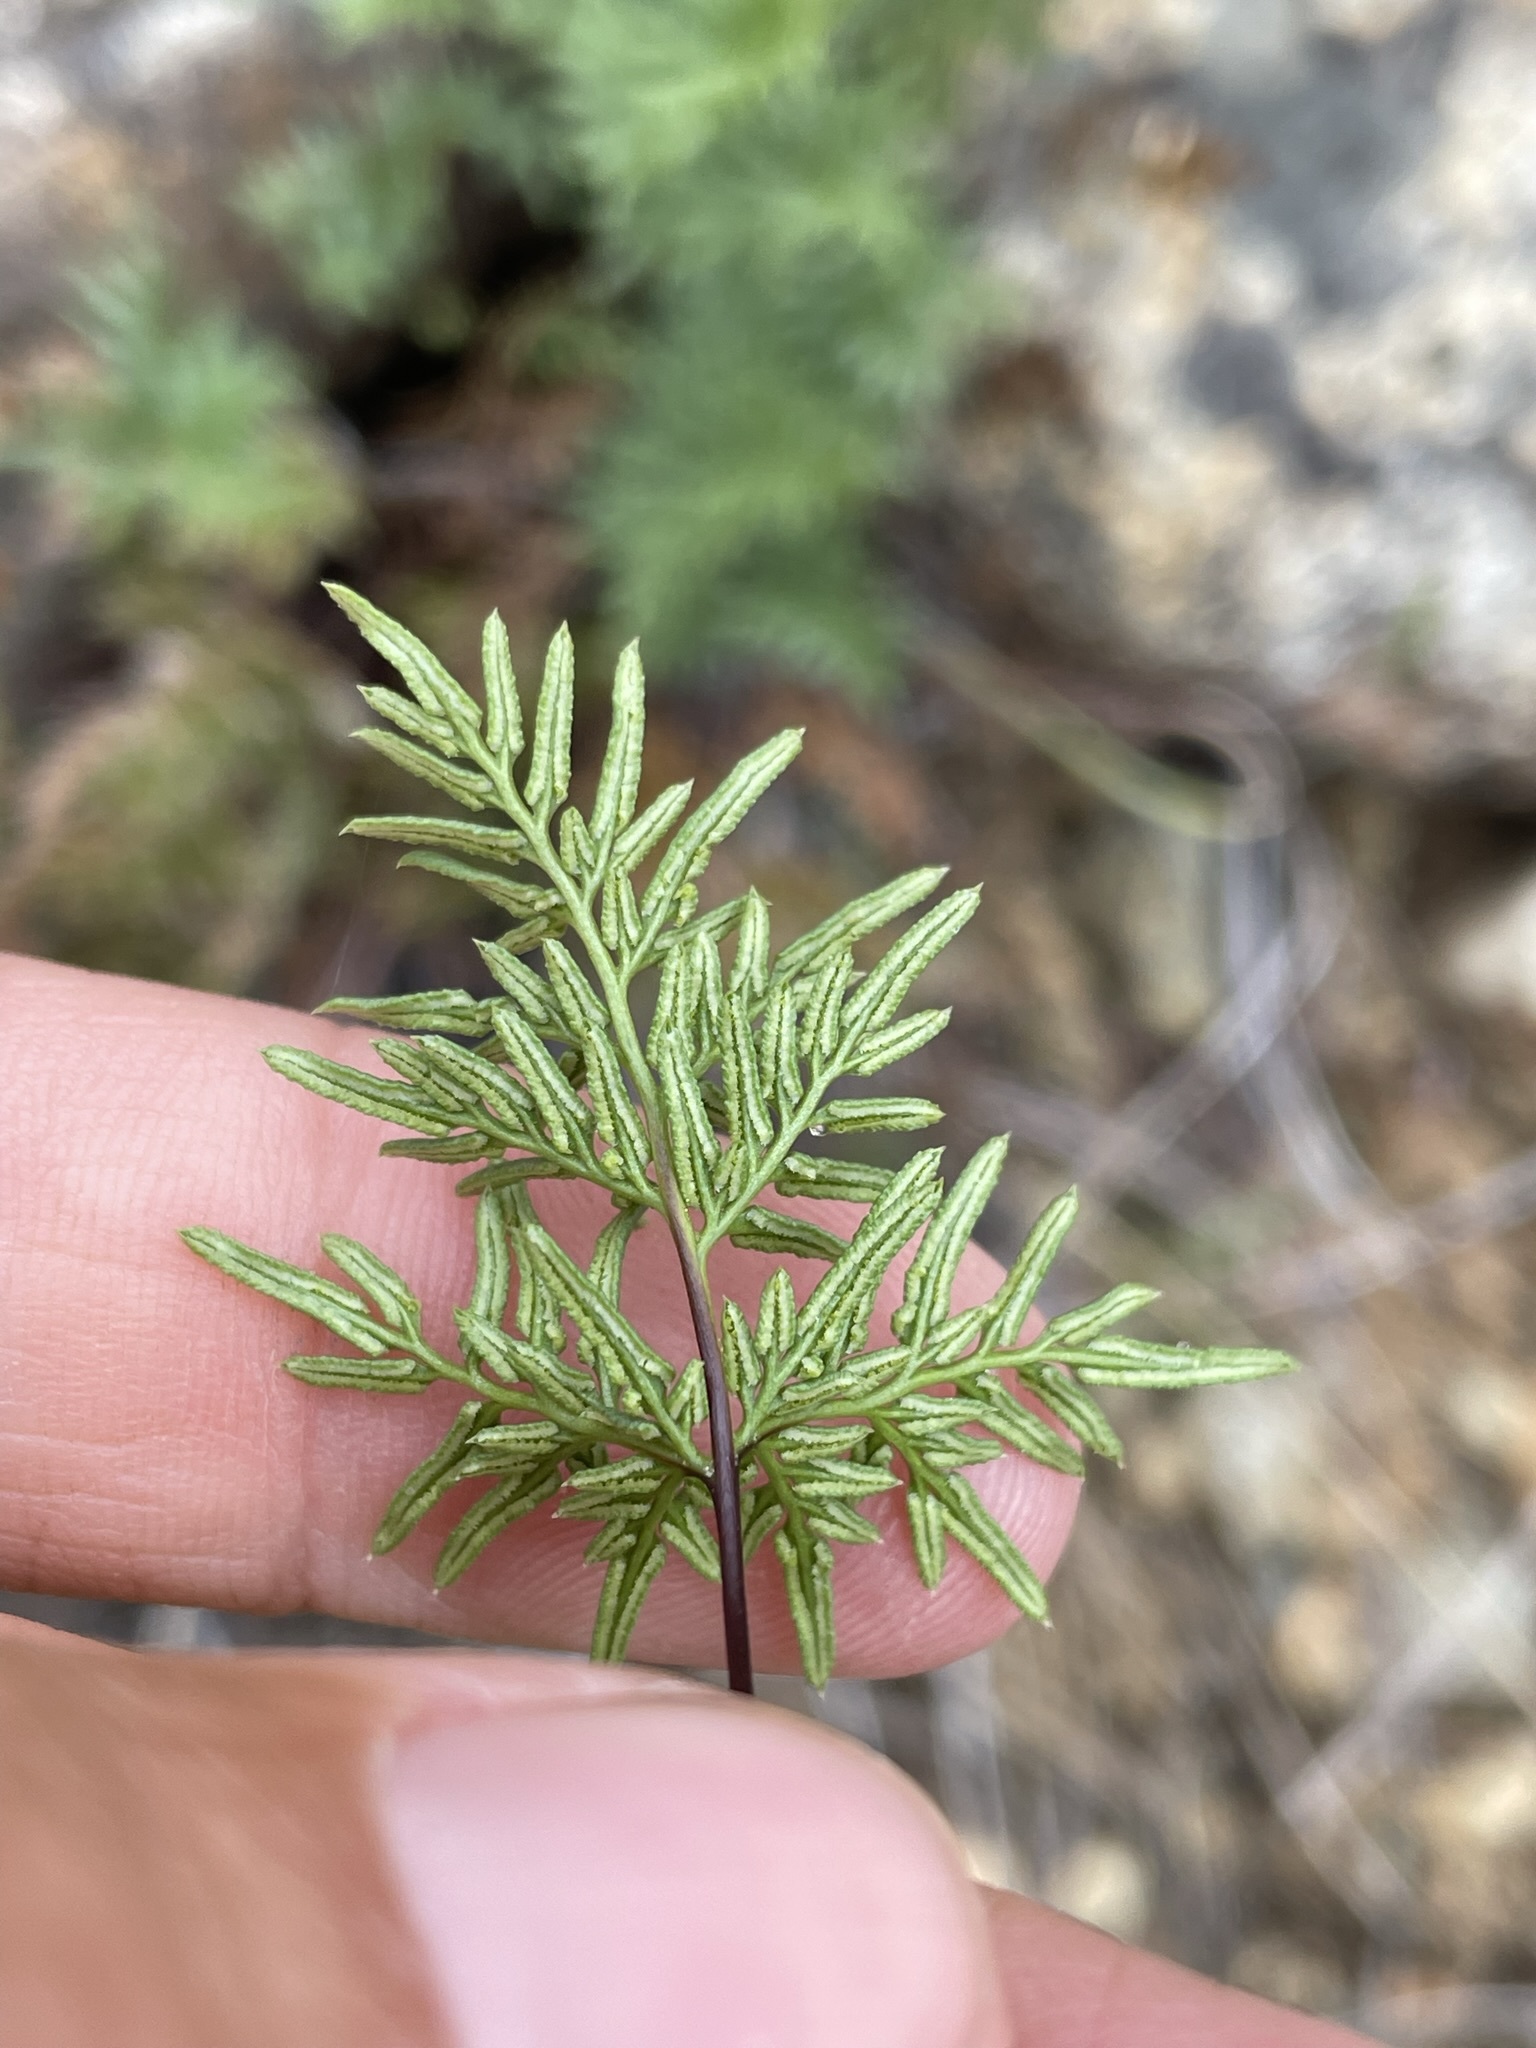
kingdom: Plantae
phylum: Tracheophyta
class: Polypodiopsida
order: Polypodiales
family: Pteridaceae
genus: Aspidotis
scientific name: Aspidotis densa
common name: Indian's dream
